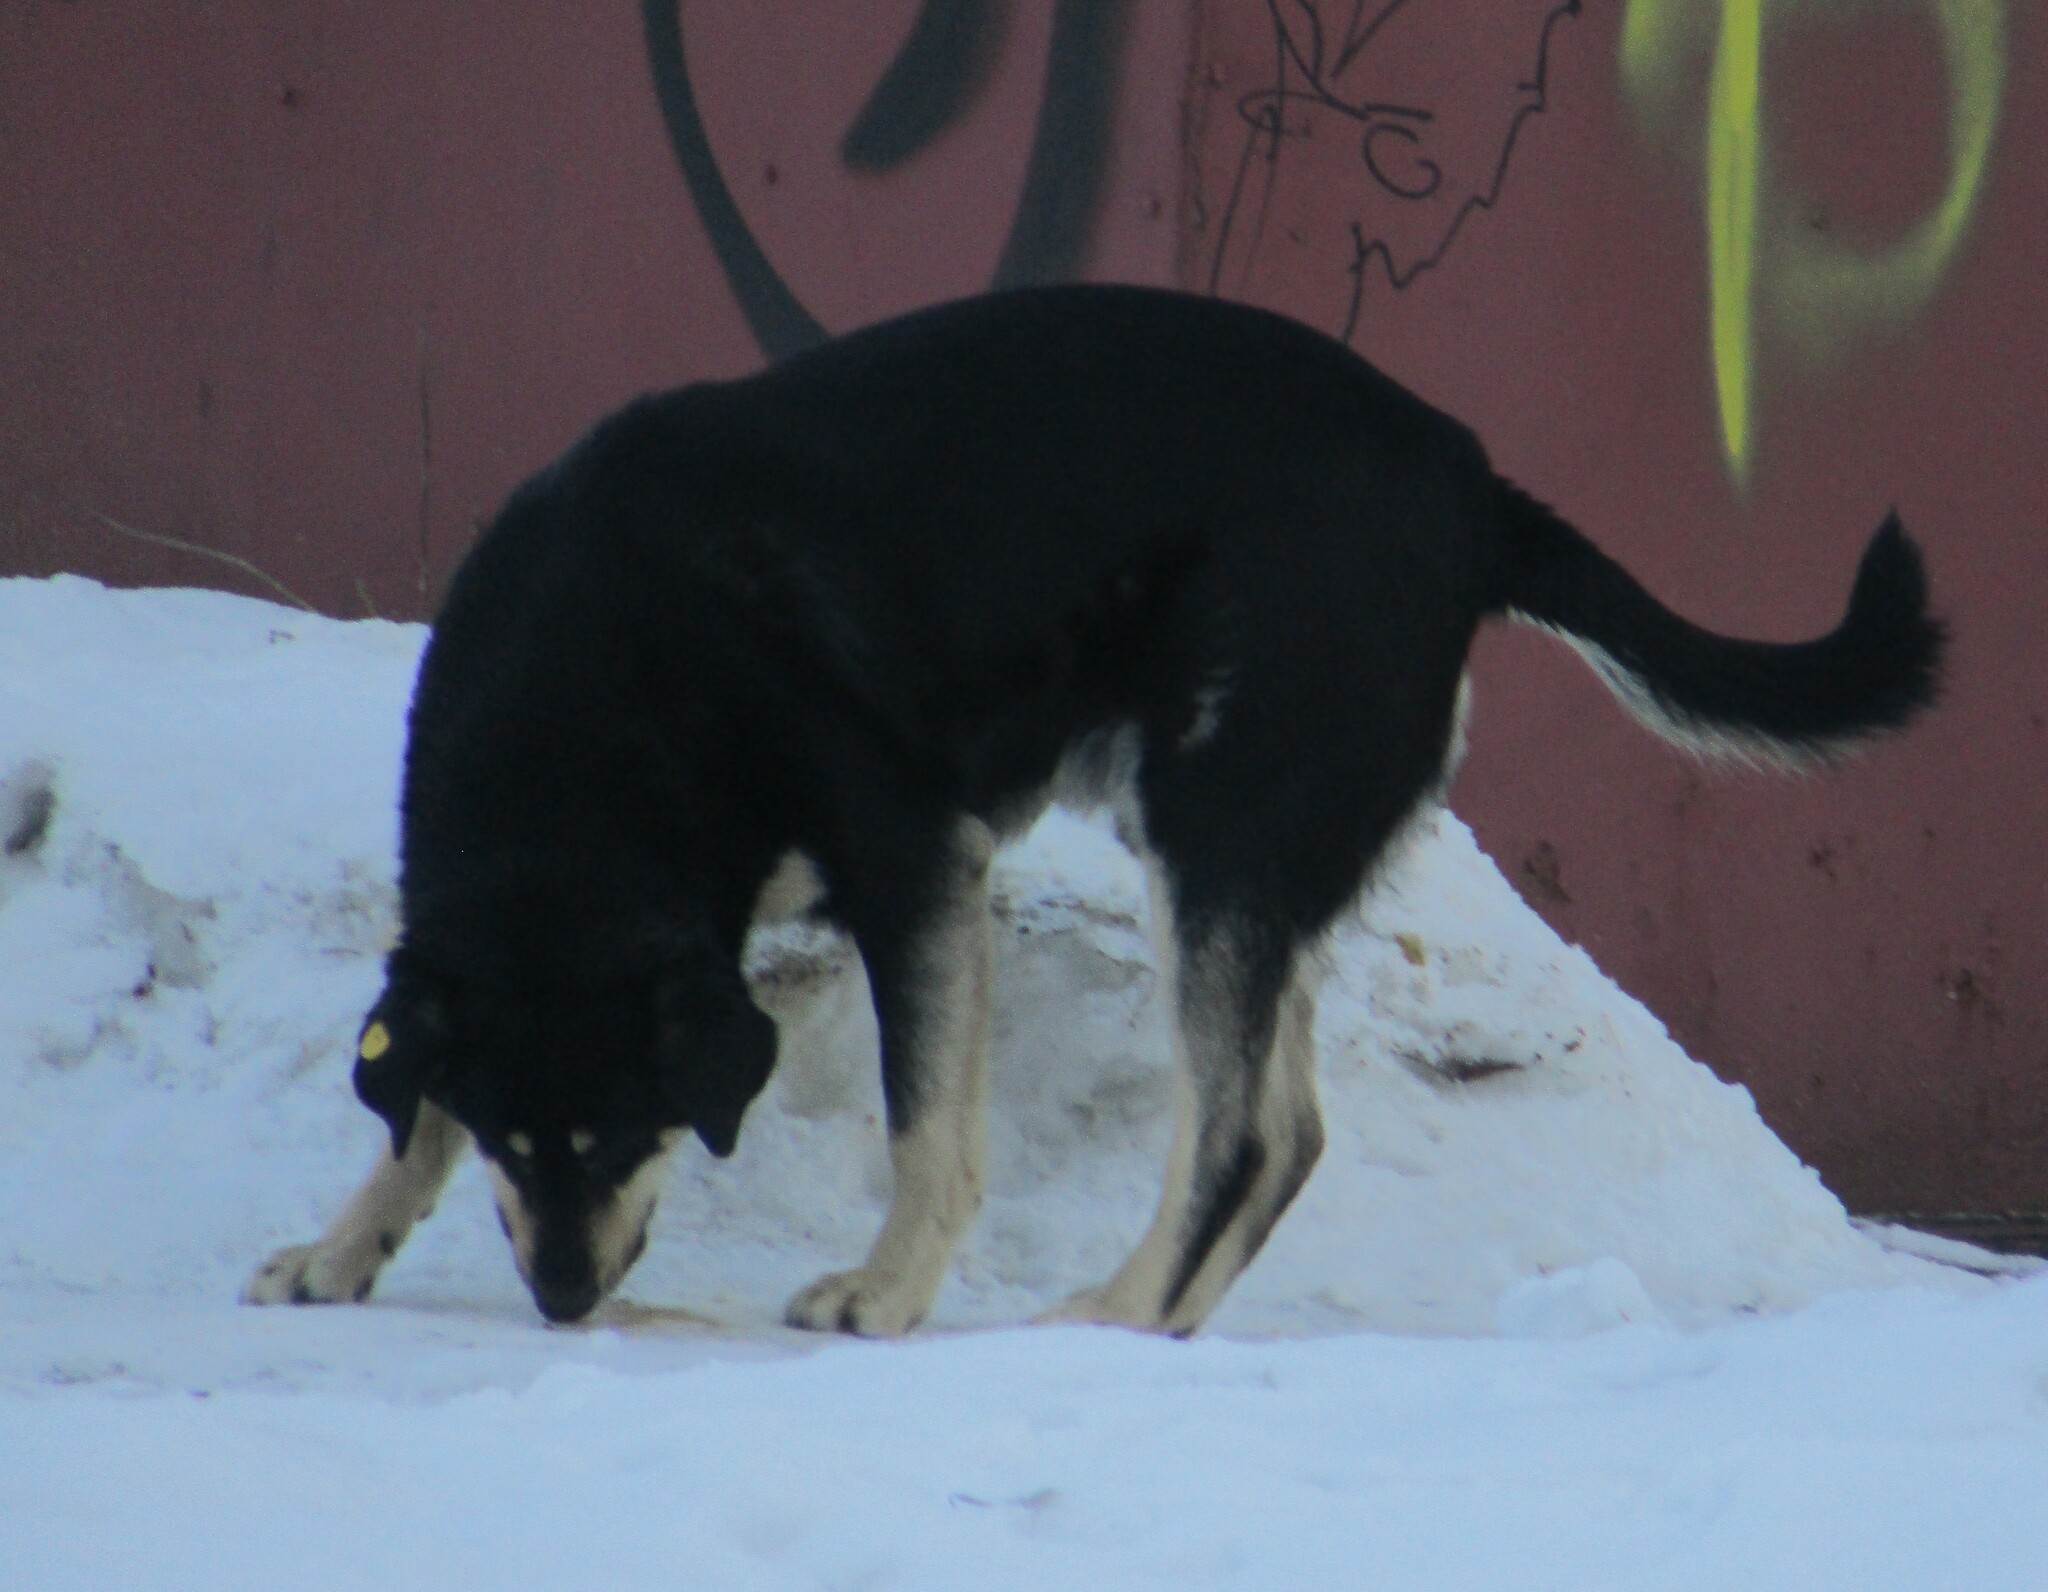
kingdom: Animalia
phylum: Chordata
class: Mammalia
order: Carnivora
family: Canidae
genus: Canis
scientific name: Canis lupus
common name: Gray wolf
